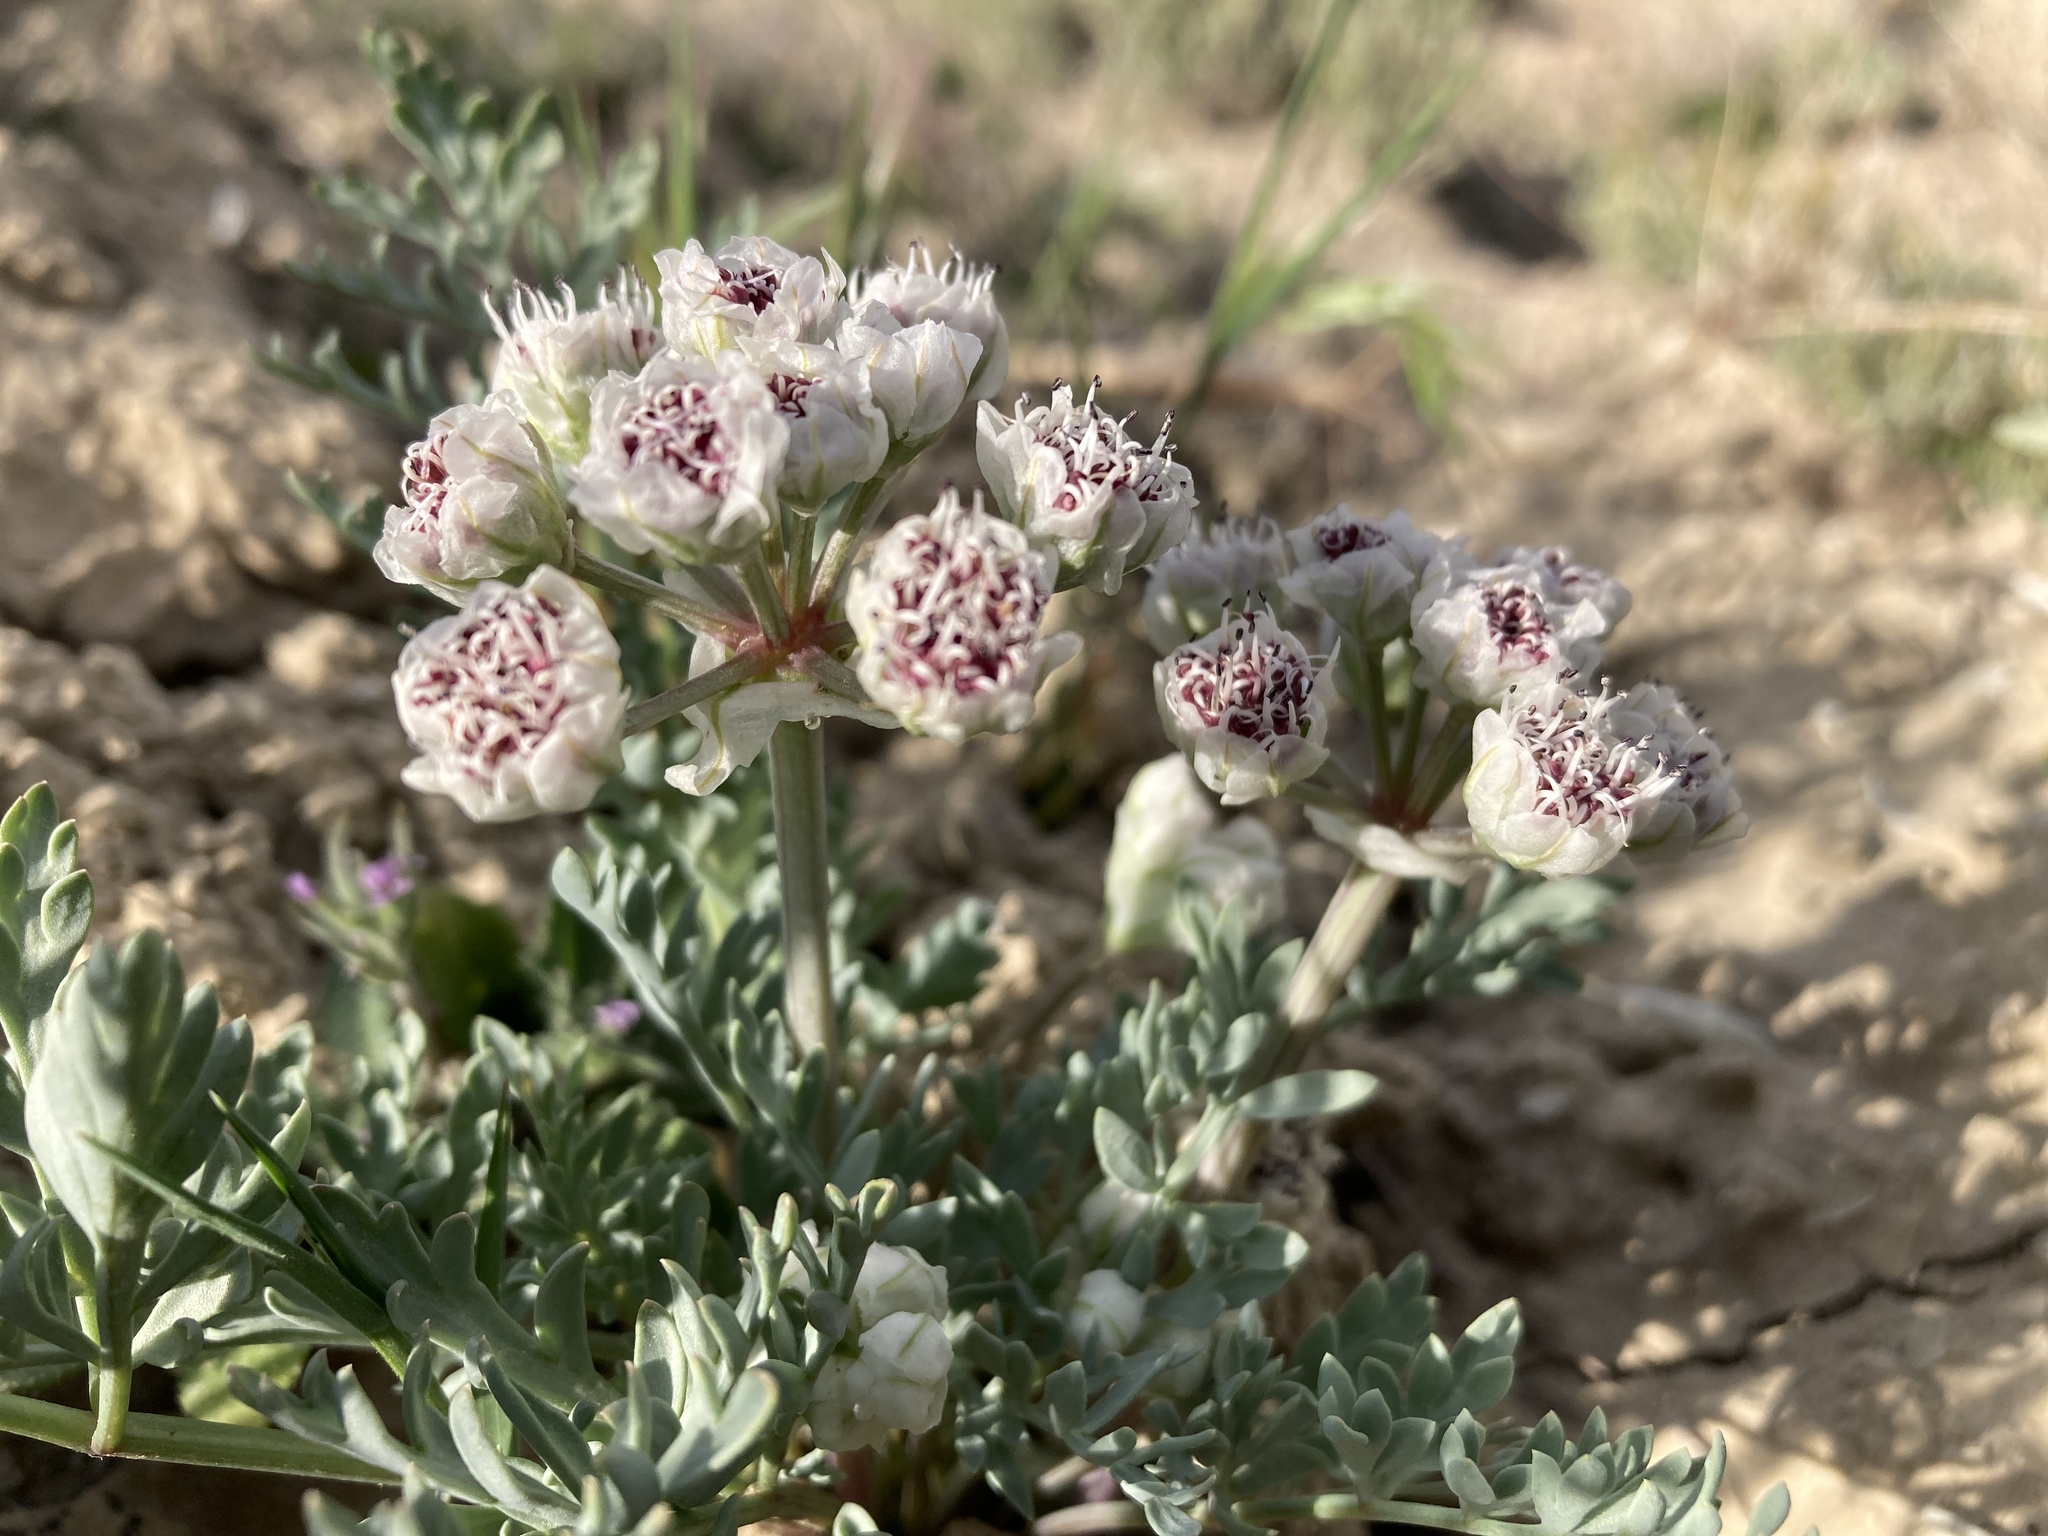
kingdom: Plantae
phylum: Tracheophyta
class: Magnoliopsida
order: Apiales
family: Apiaceae
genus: Vesper
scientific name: Vesper bulbosus
